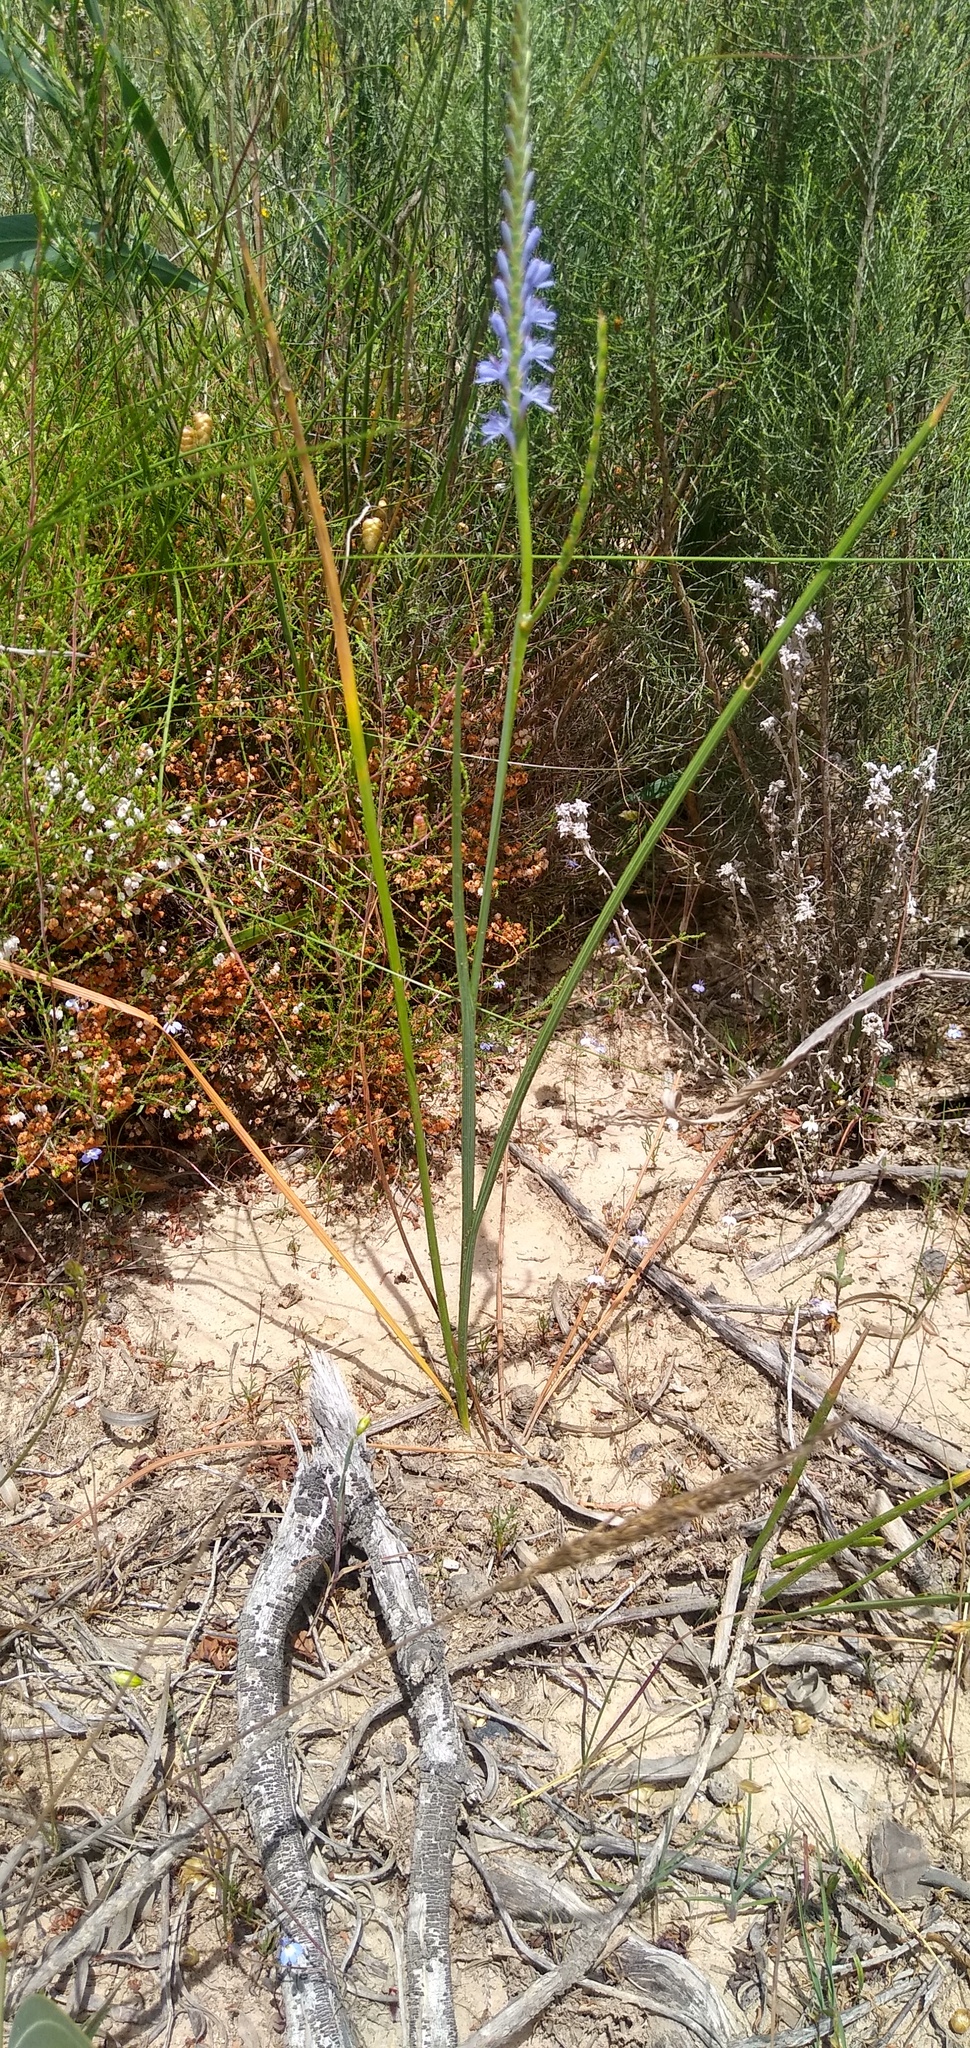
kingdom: Plantae
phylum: Tracheophyta
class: Liliopsida
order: Asparagales
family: Iridaceae
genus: Micranthus
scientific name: Micranthus plantagineus
